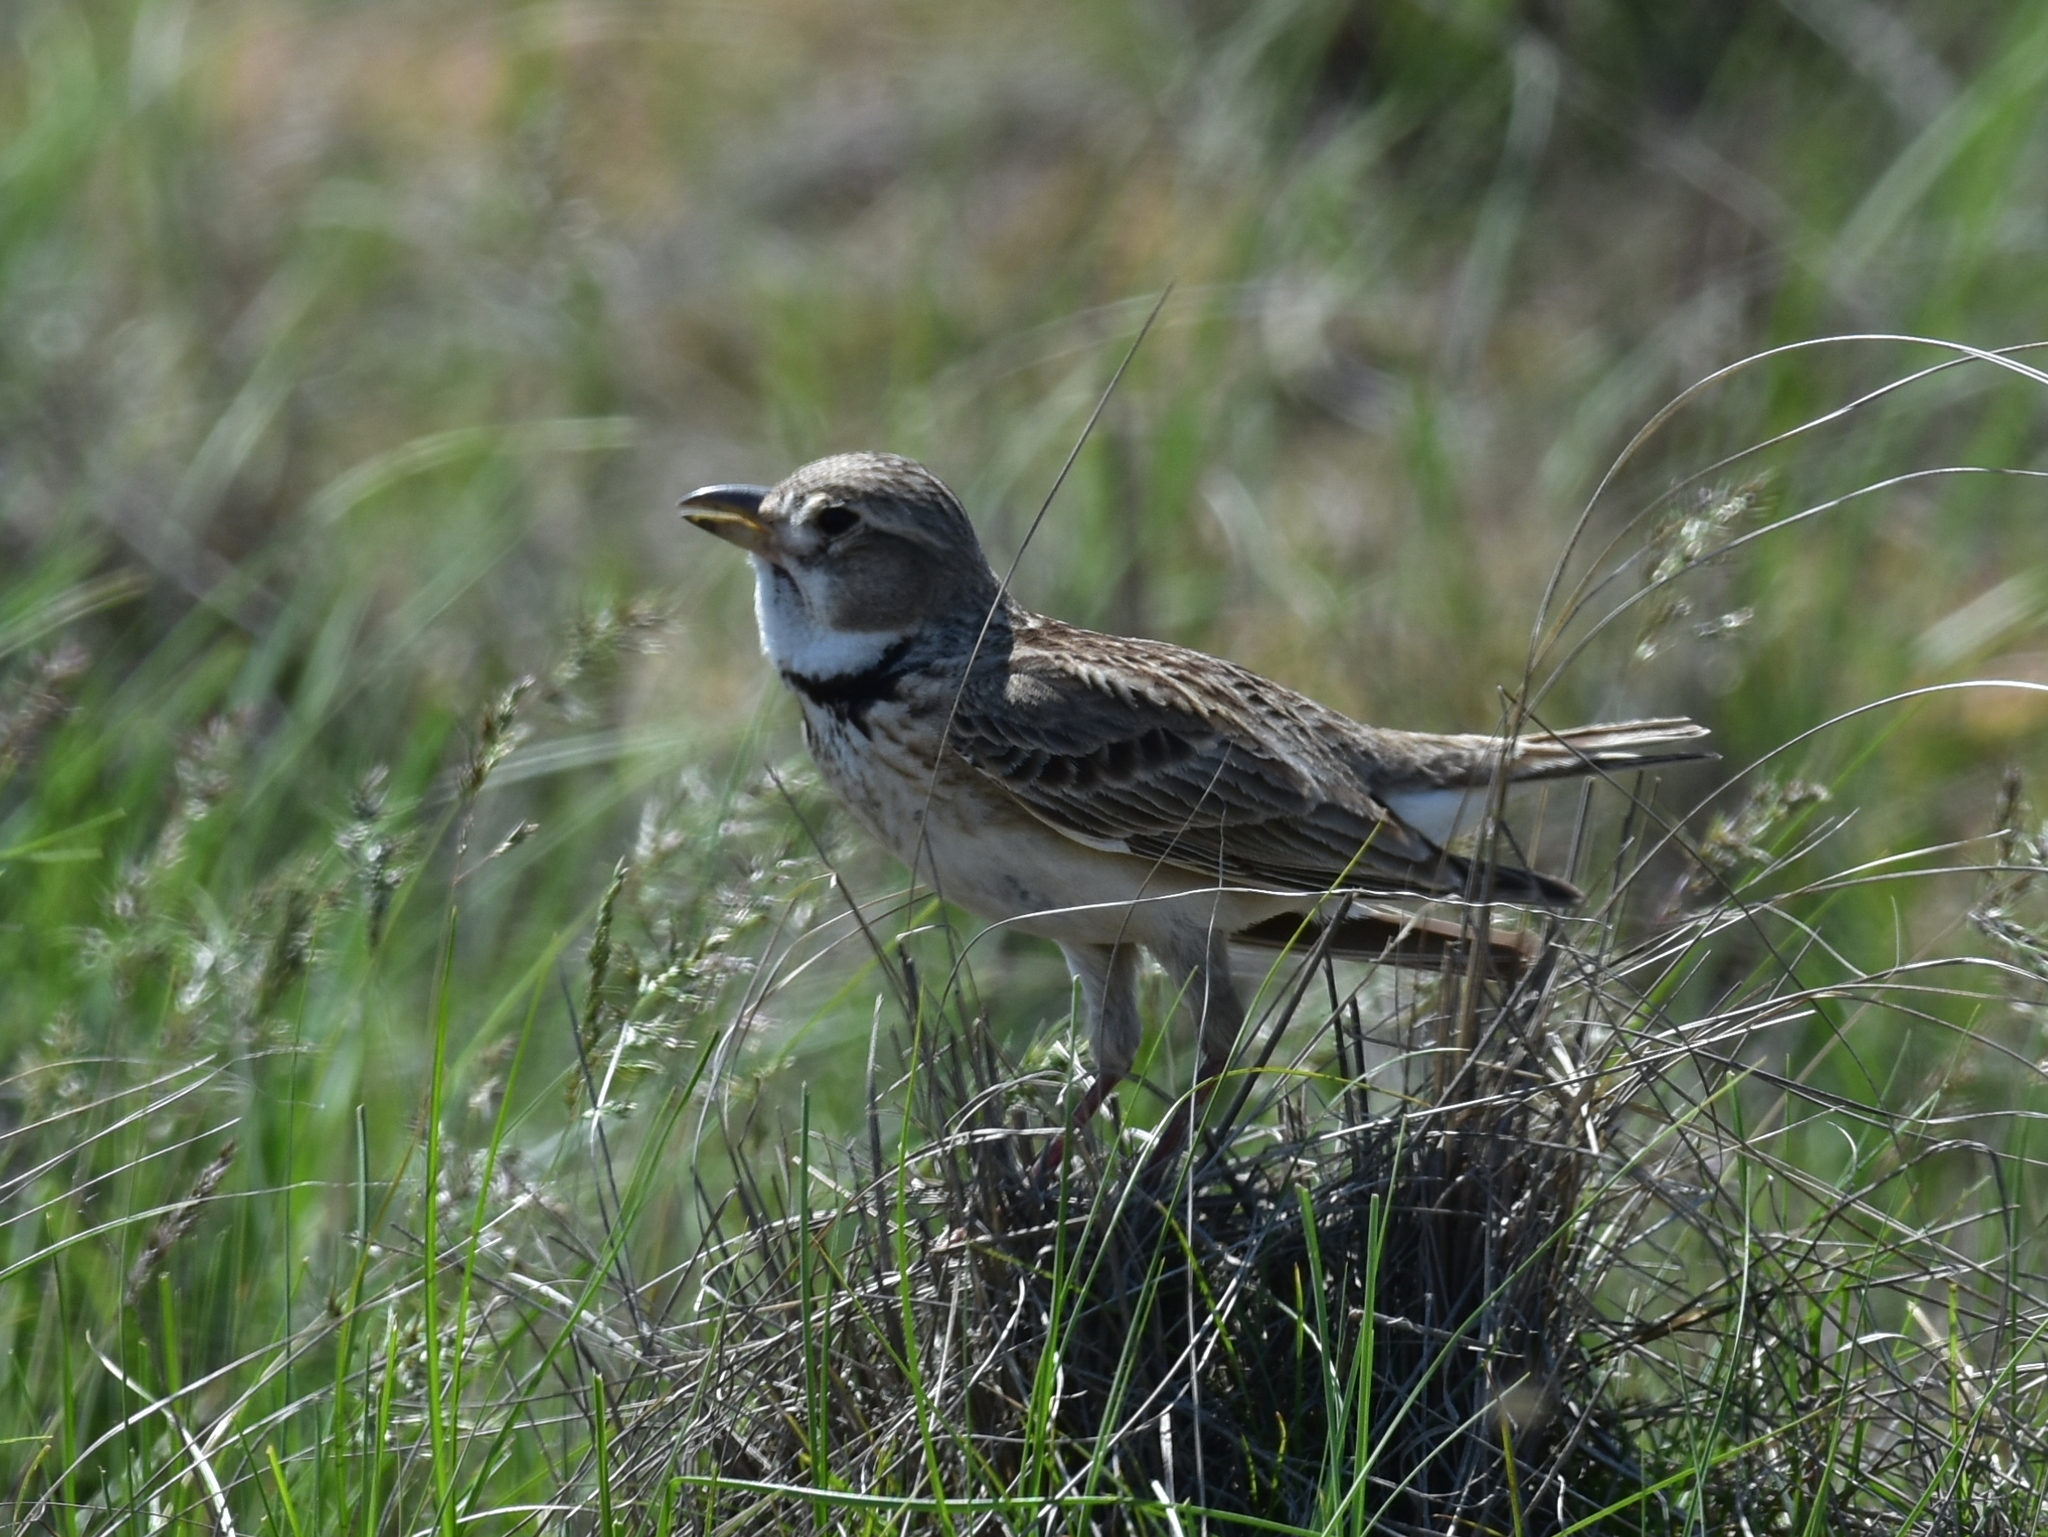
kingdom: Animalia
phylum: Chordata
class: Aves
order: Passeriformes
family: Alaudidae
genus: Melanocorypha
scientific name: Melanocorypha calandra
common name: Calandra lark
